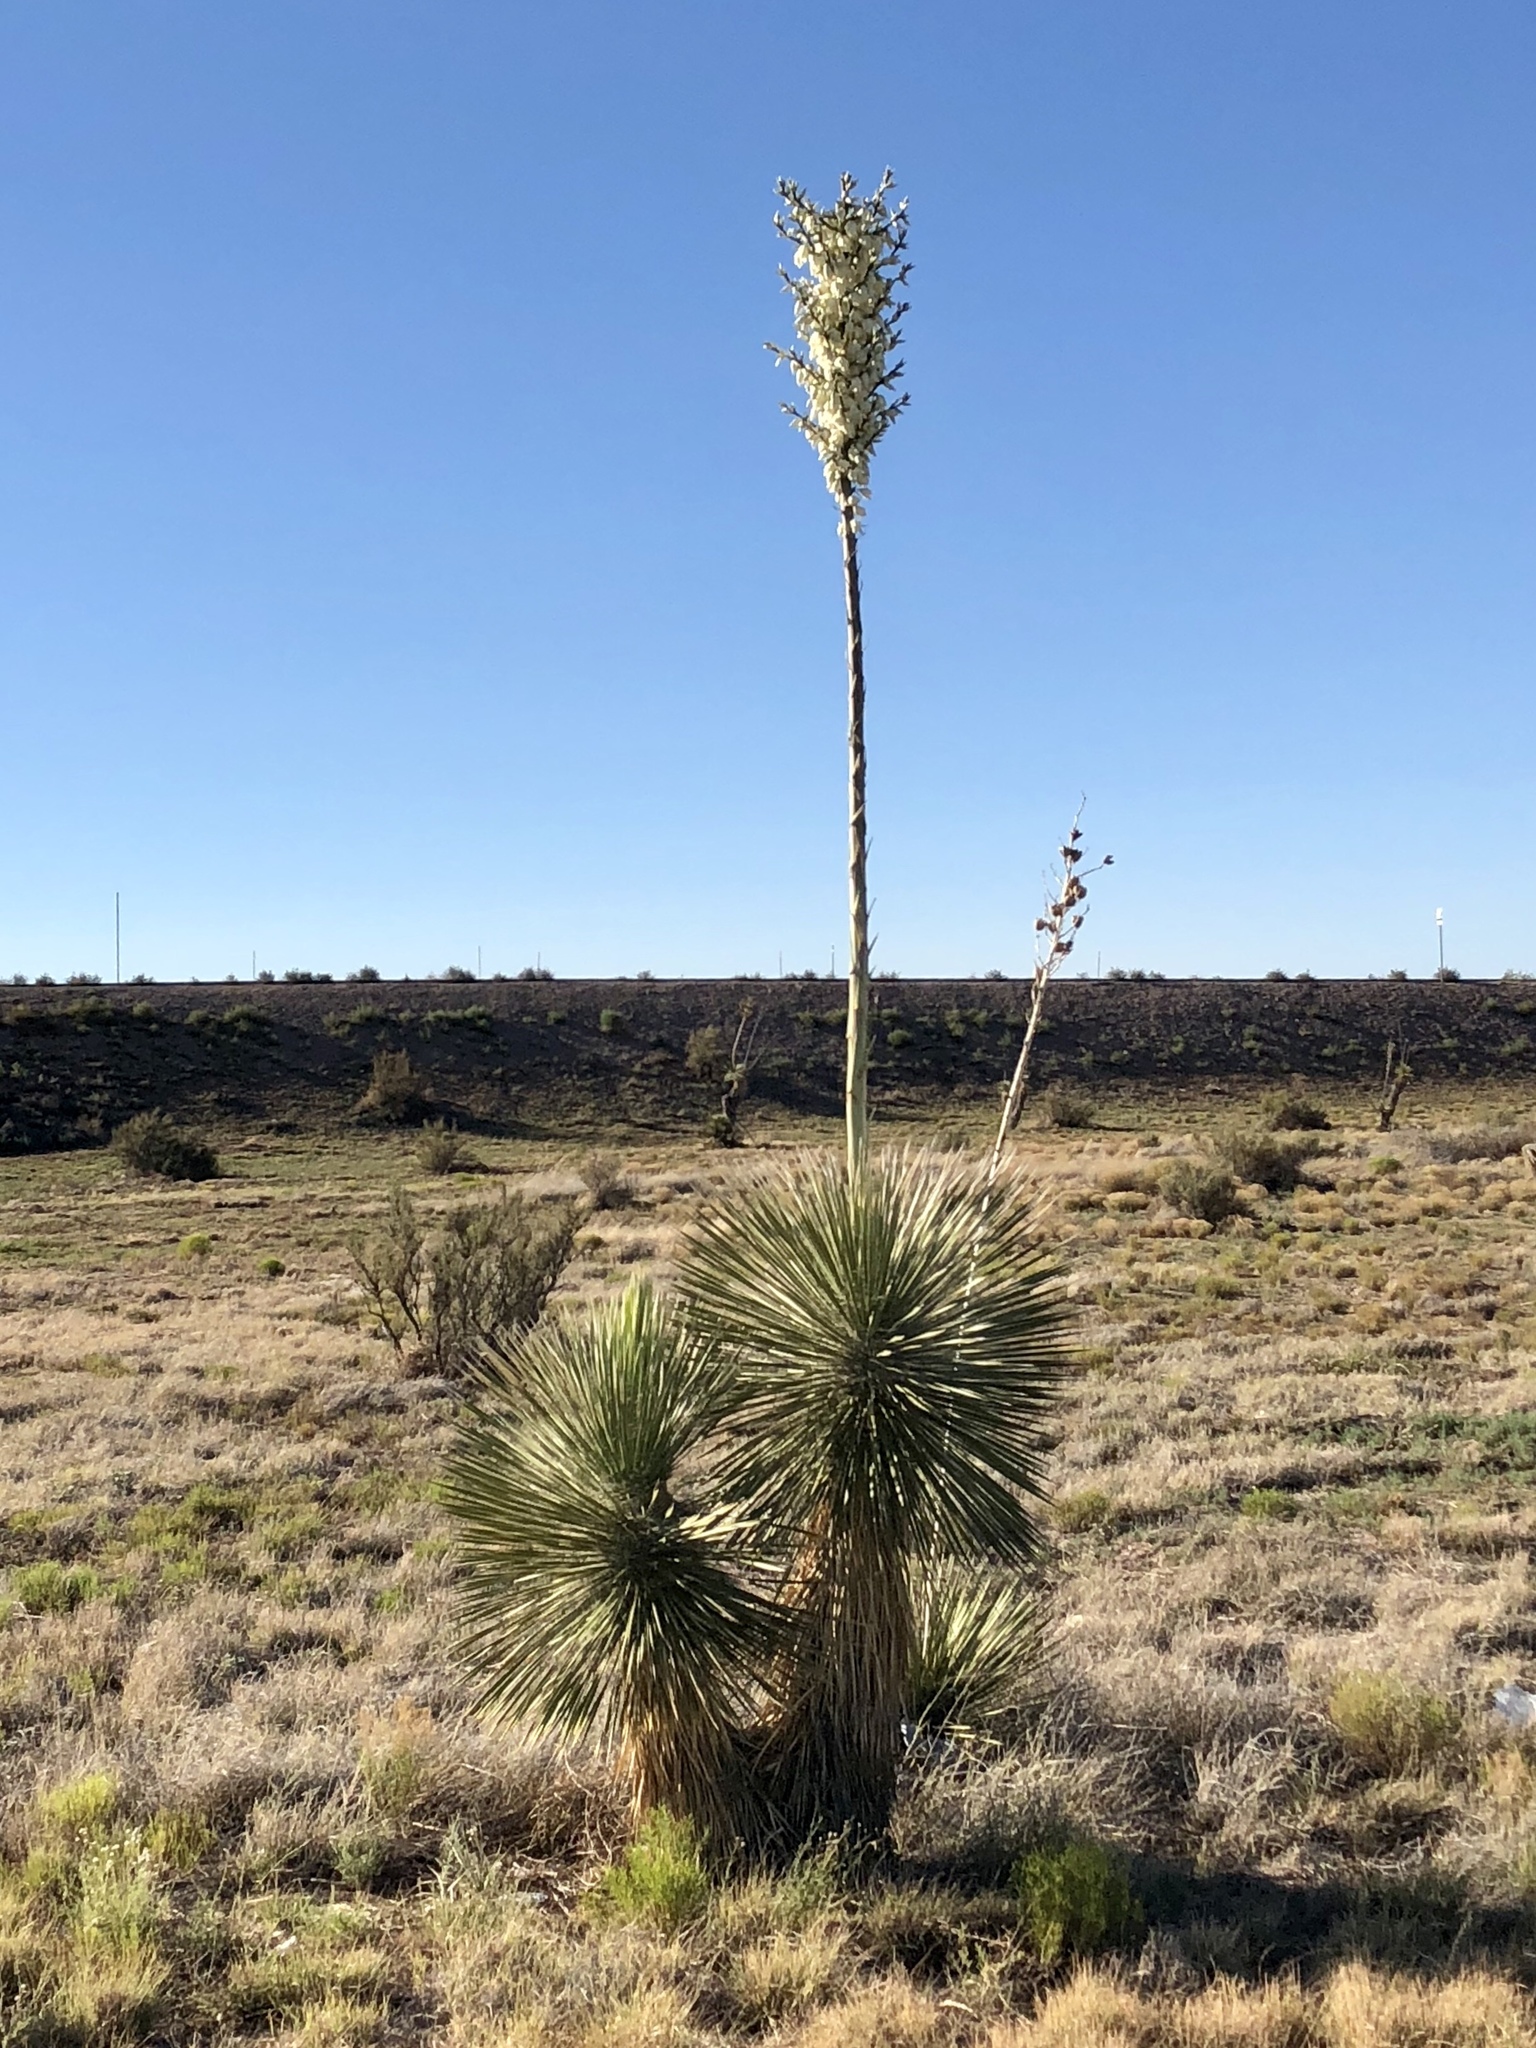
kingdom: Plantae
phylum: Tracheophyta
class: Liliopsida
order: Asparagales
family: Asparagaceae
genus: Yucca
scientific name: Yucca elata
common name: Palmella
